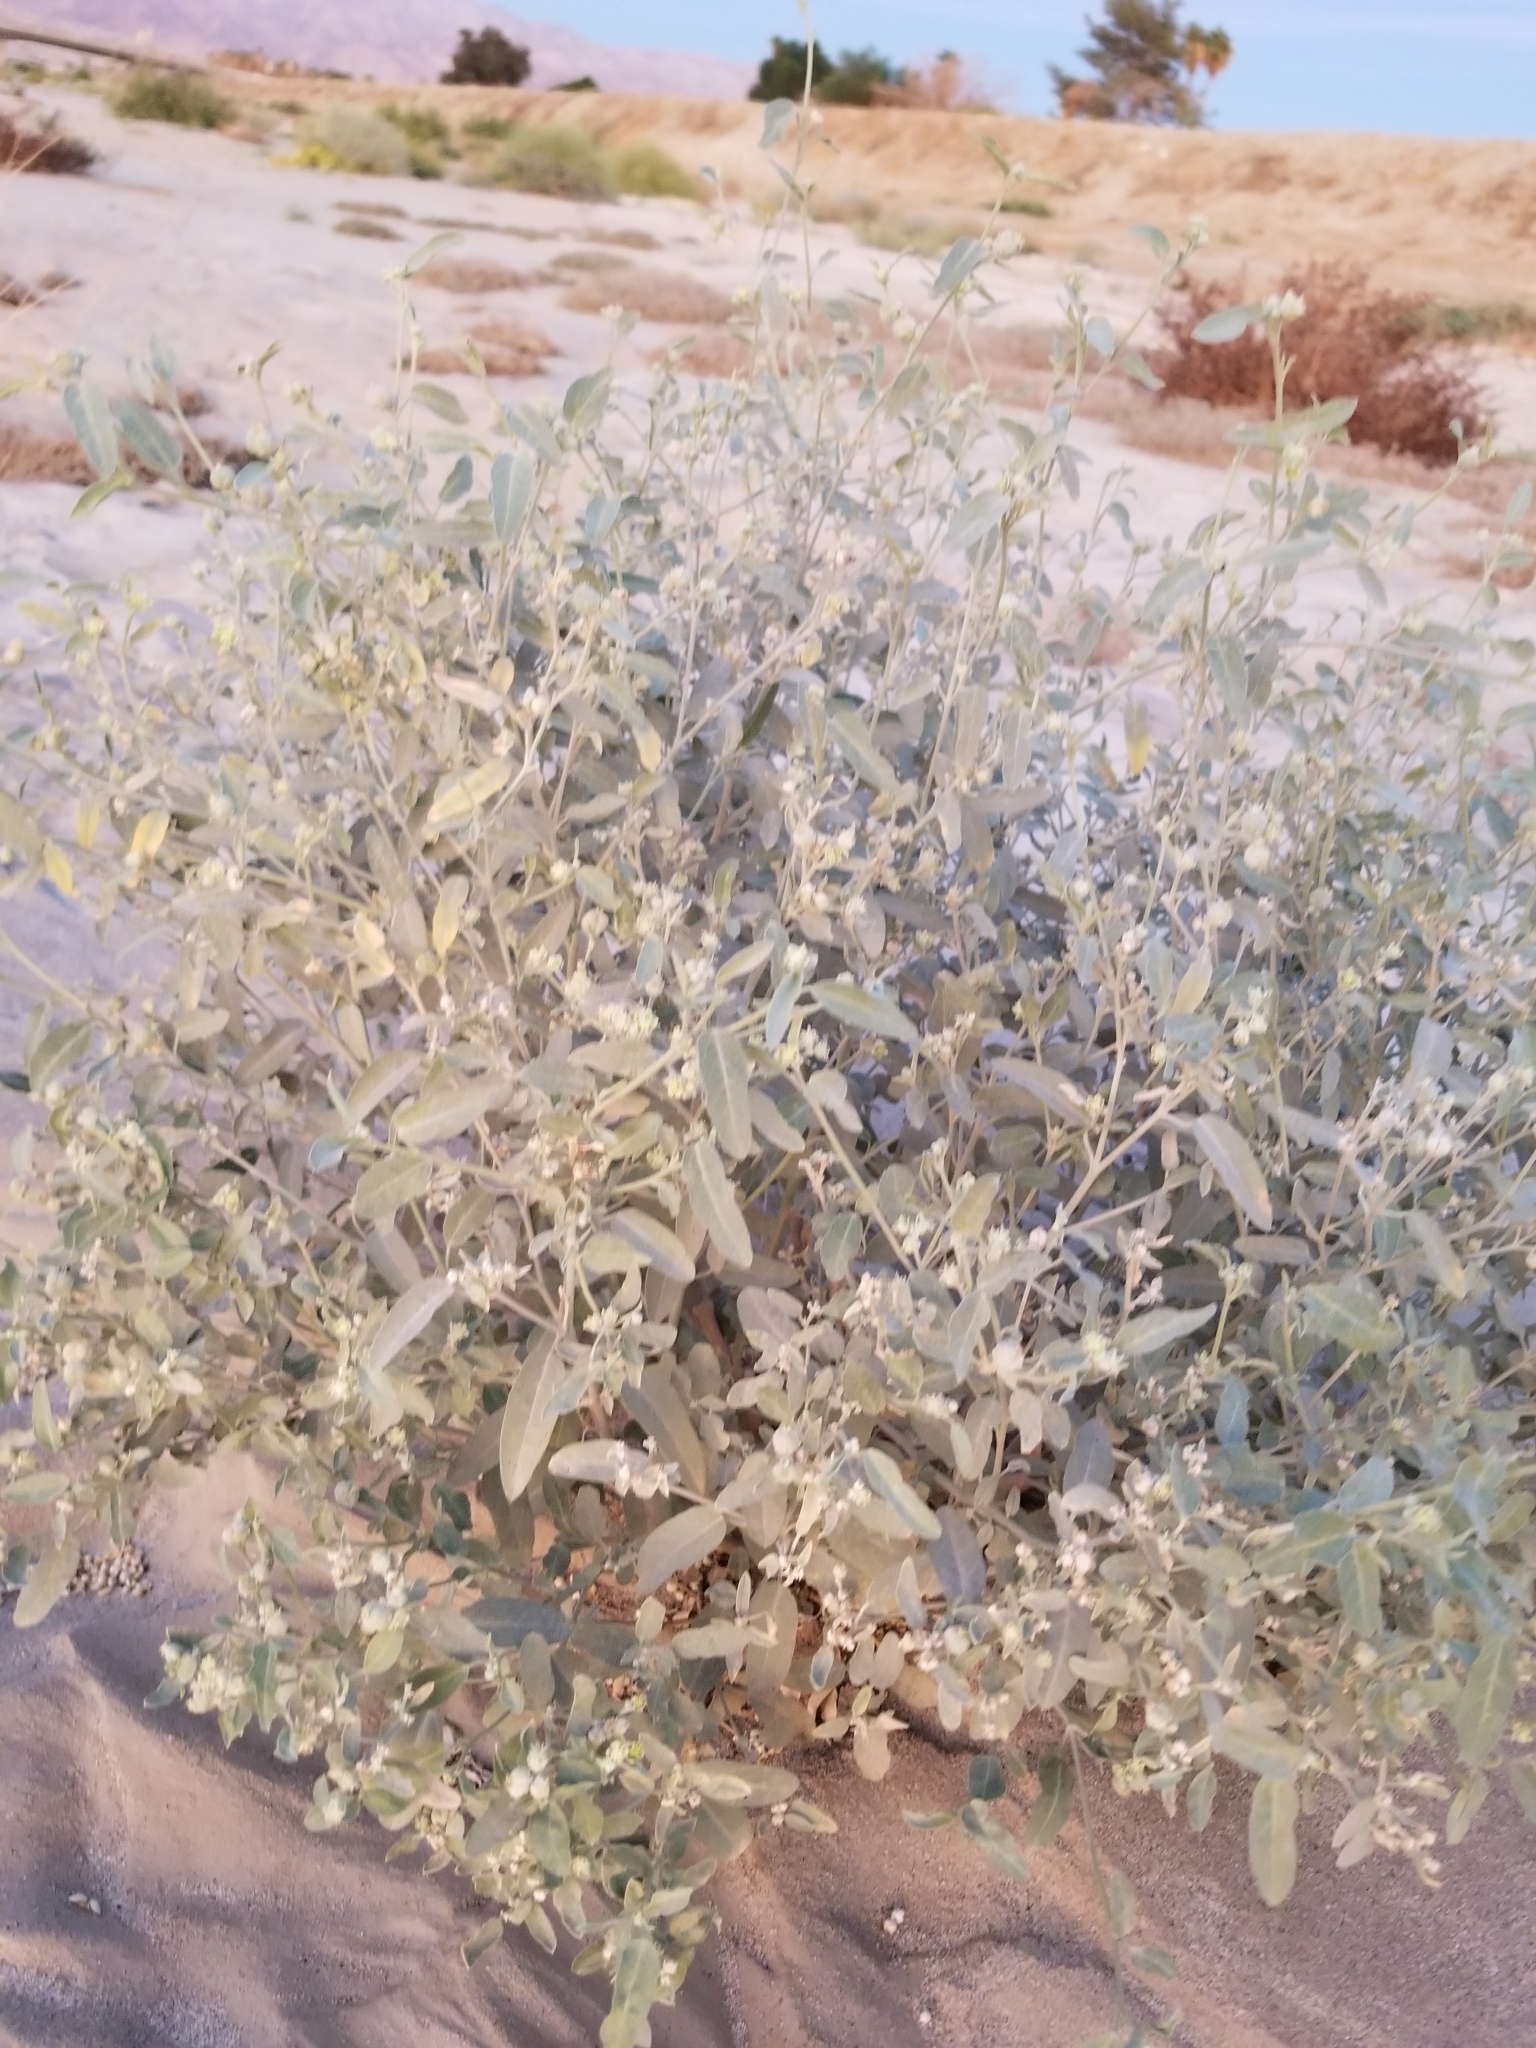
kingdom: Plantae
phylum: Tracheophyta
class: Magnoliopsida
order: Malpighiales
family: Euphorbiaceae
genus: Croton
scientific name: Croton californicus
